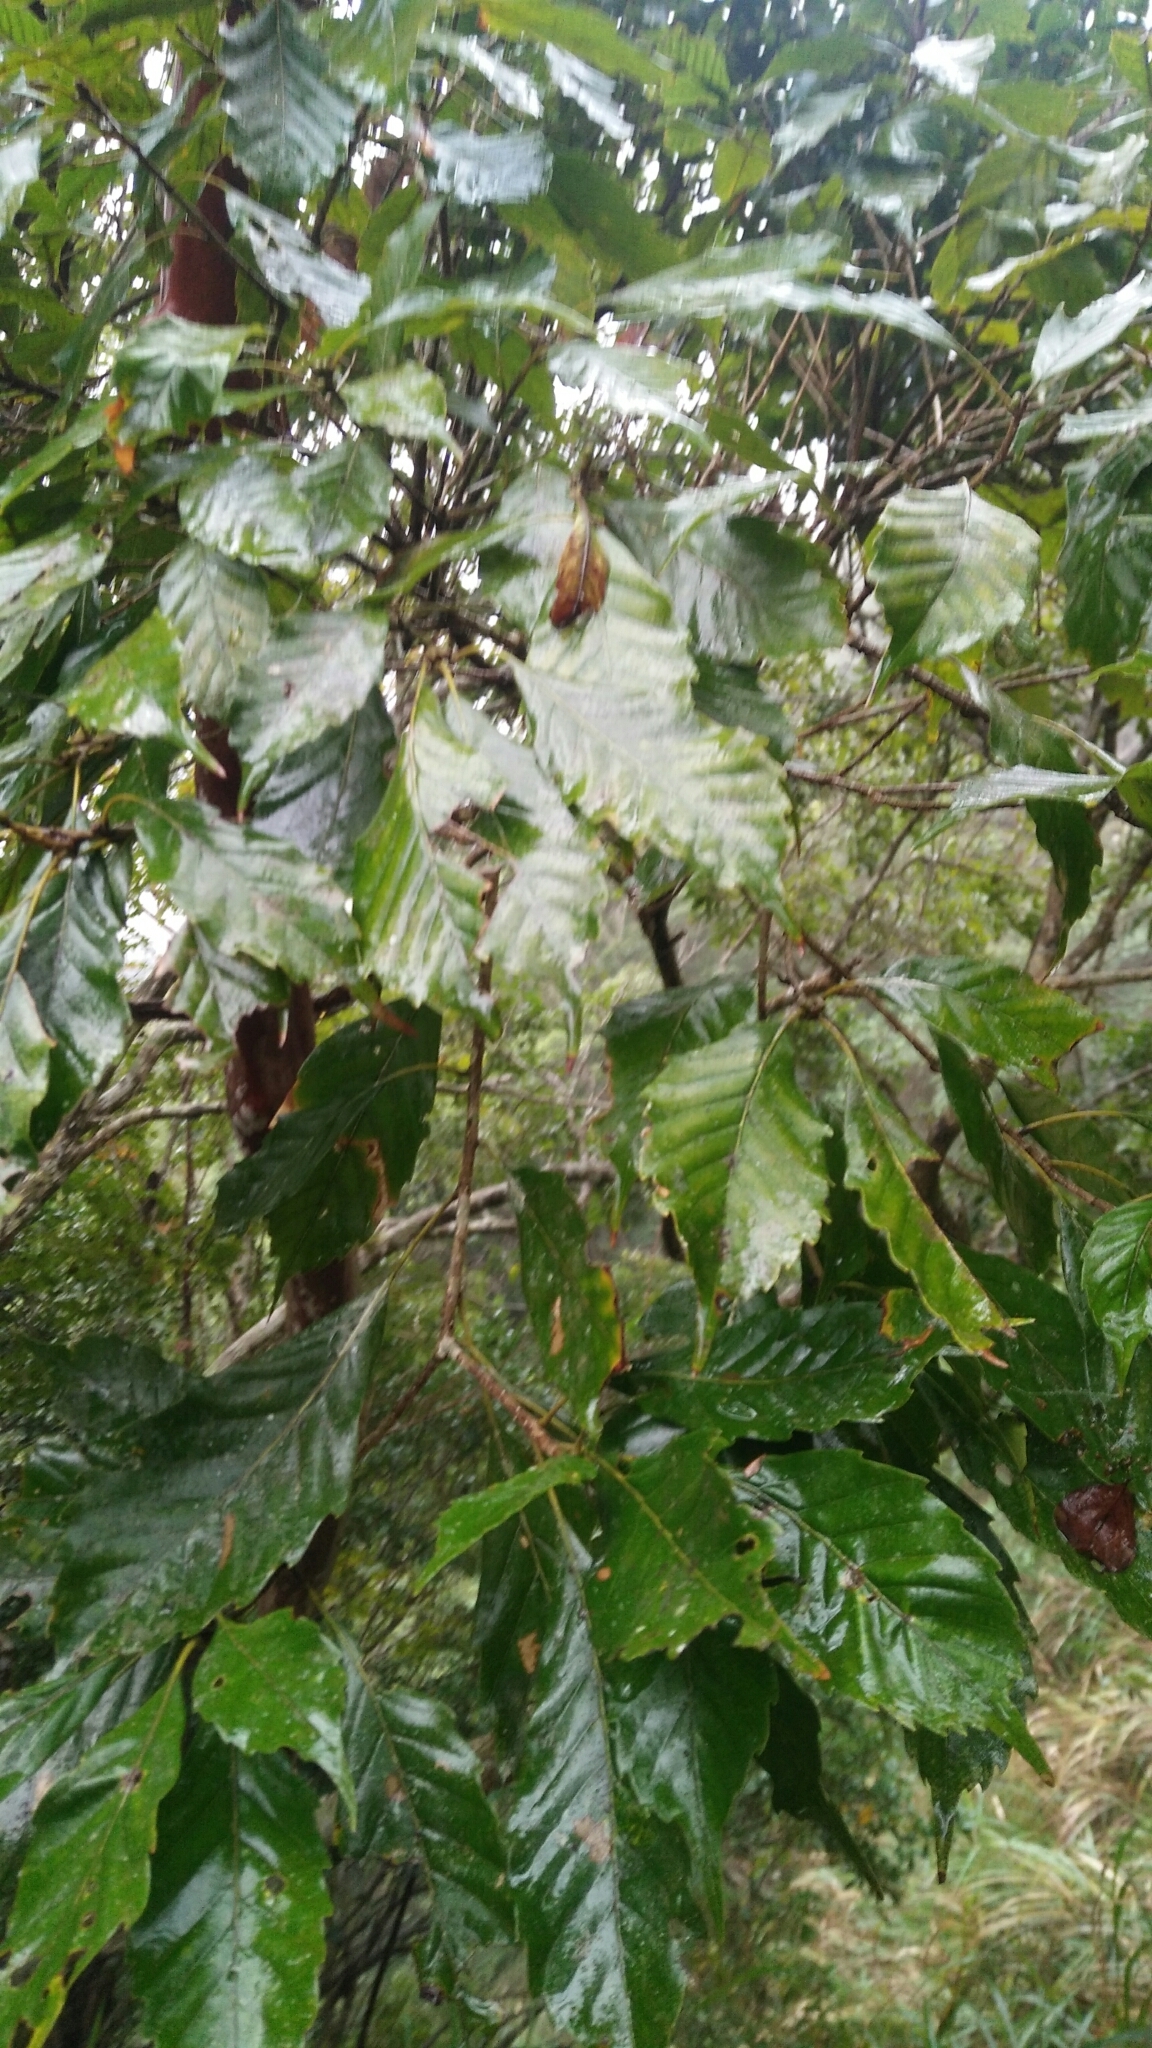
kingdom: Plantae
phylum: Tracheophyta
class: Magnoliopsida
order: Fagales
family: Fagaceae
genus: Lithocarpus
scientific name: Lithocarpus corneus
